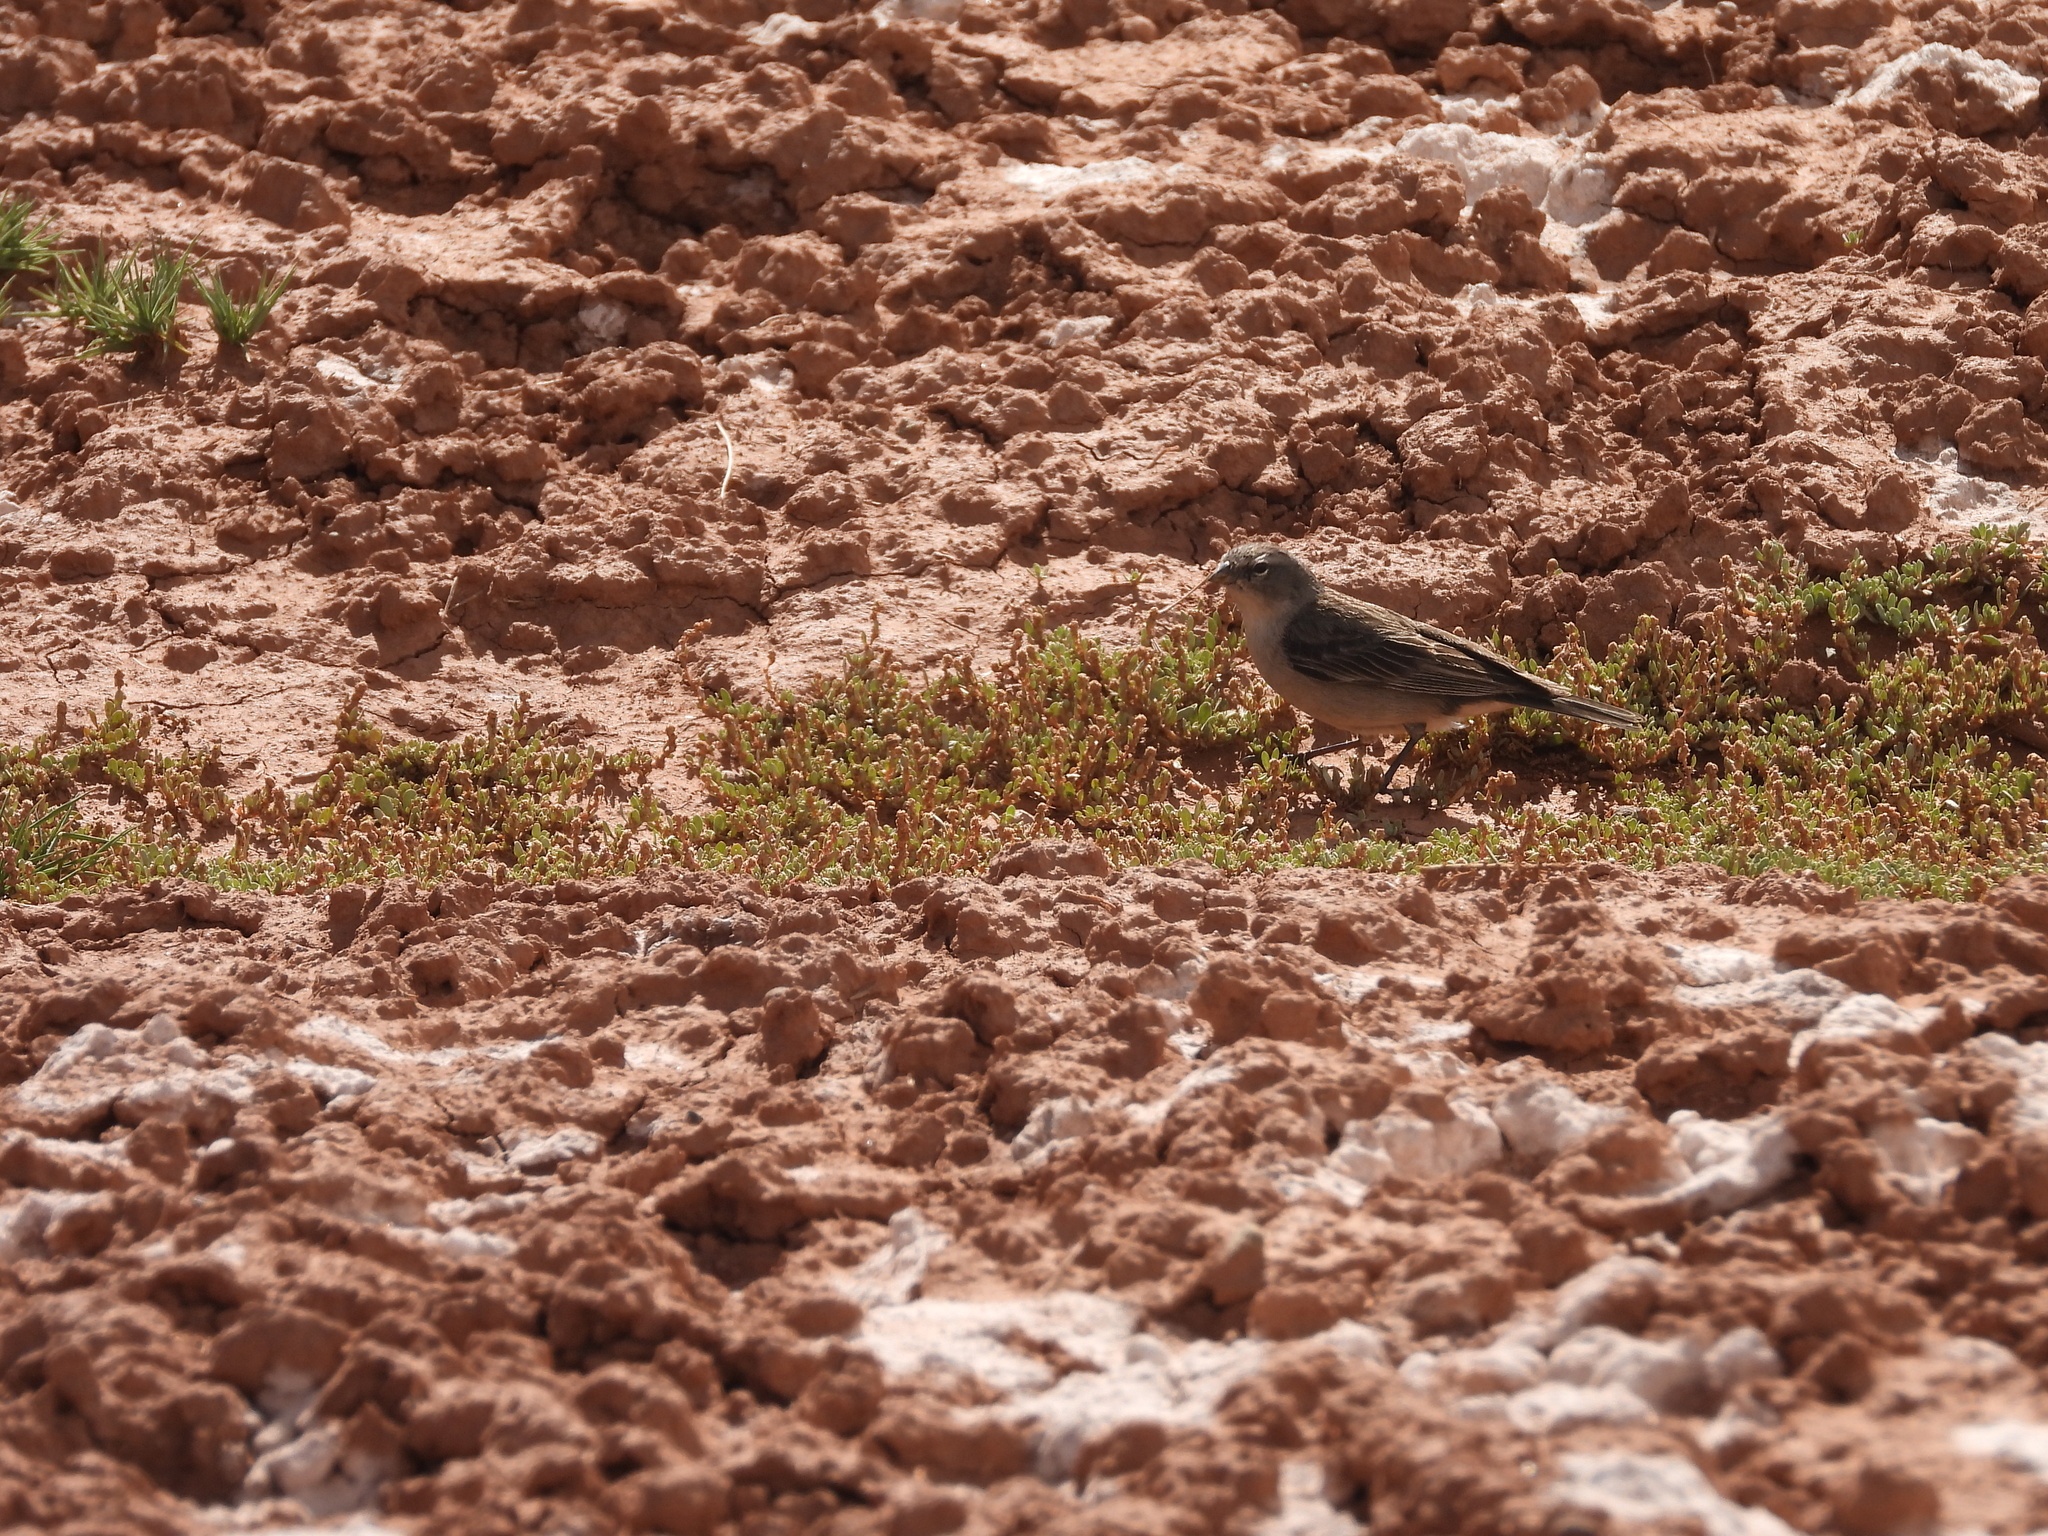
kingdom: Animalia
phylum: Chordata
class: Aves
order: Passeriformes
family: Thraupidae
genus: Geospizopsis
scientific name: Geospizopsis plebejus
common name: Ash-breasted sierra-finch
